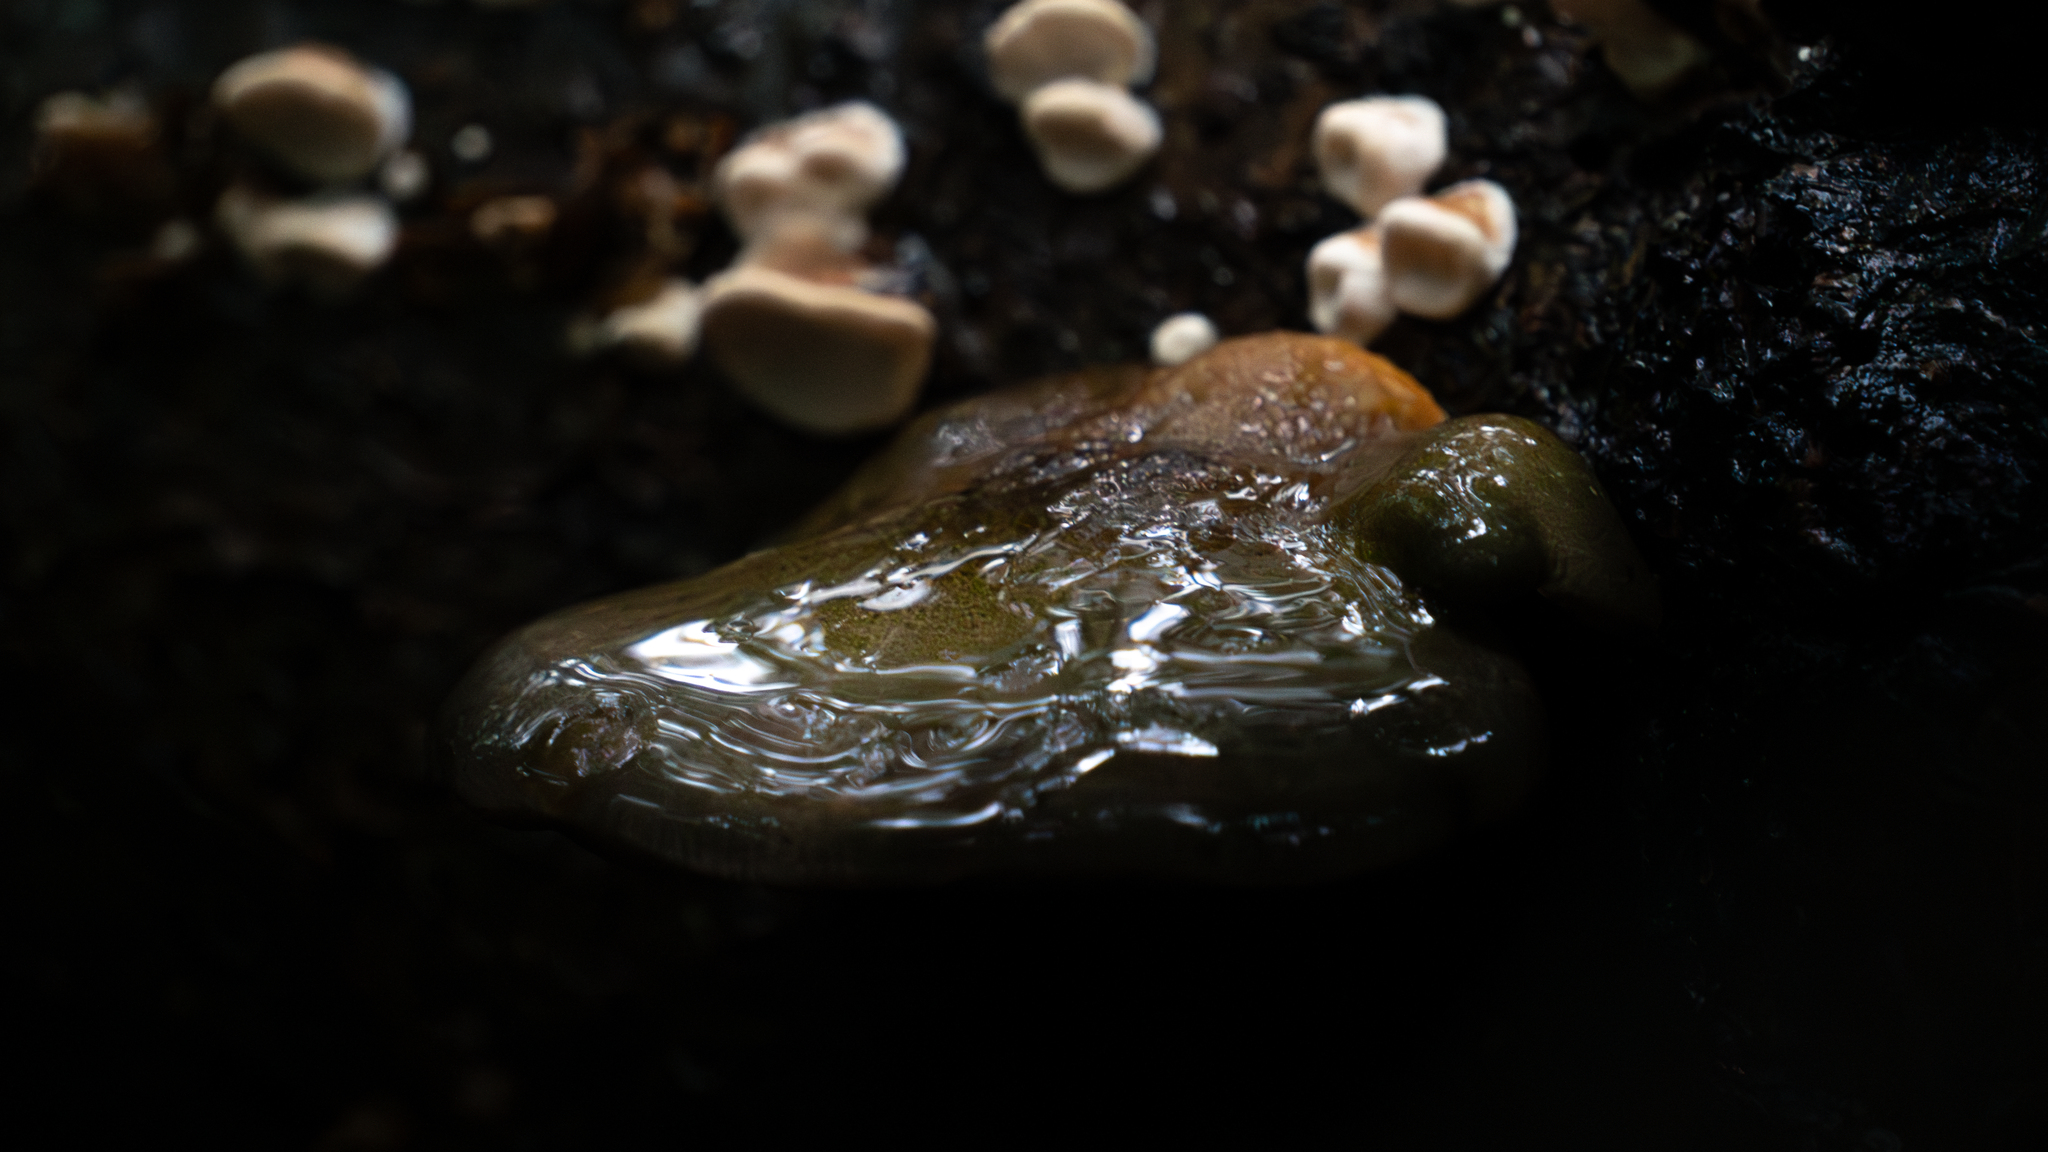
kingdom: Fungi
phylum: Basidiomycota
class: Agaricomycetes
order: Agaricales
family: Sarcomyxaceae
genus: Sarcomyxa
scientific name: Sarcomyxa serotina
